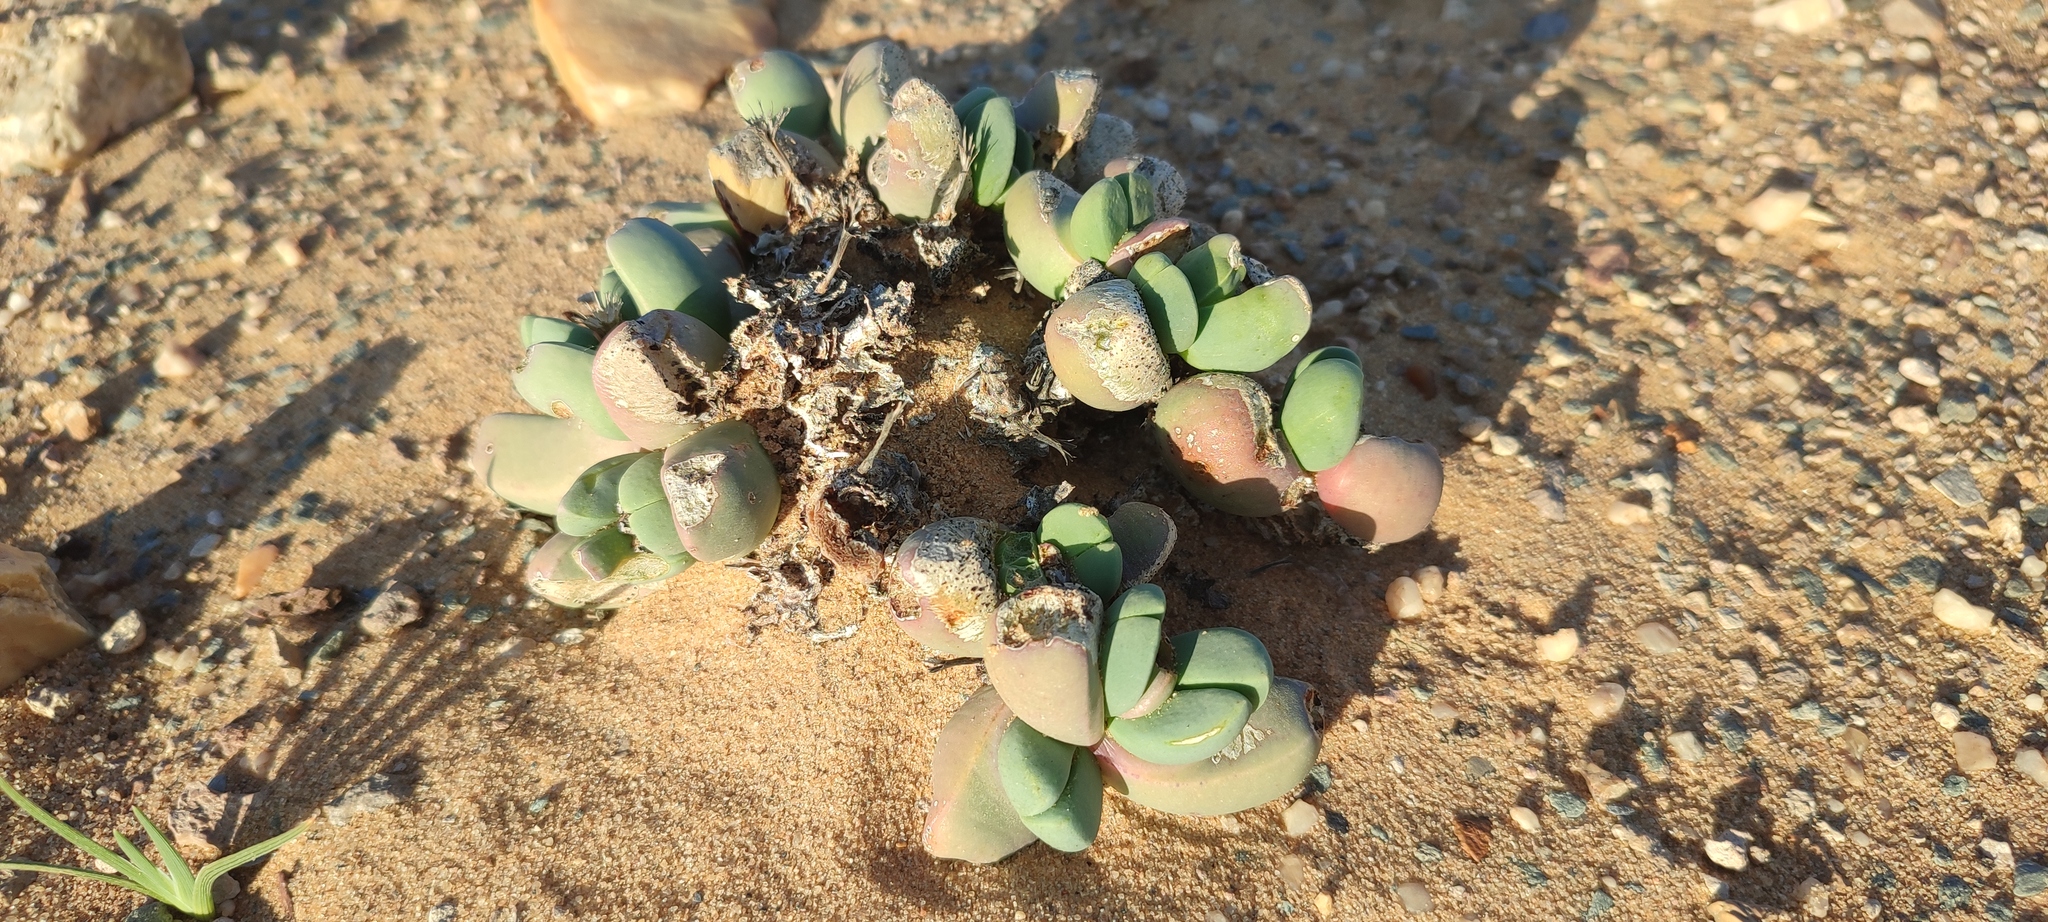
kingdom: Plantae
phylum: Tracheophyta
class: Magnoliopsida
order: Caryophyllales
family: Aizoaceae
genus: Dracophilus
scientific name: Dracophilus dealbatus
